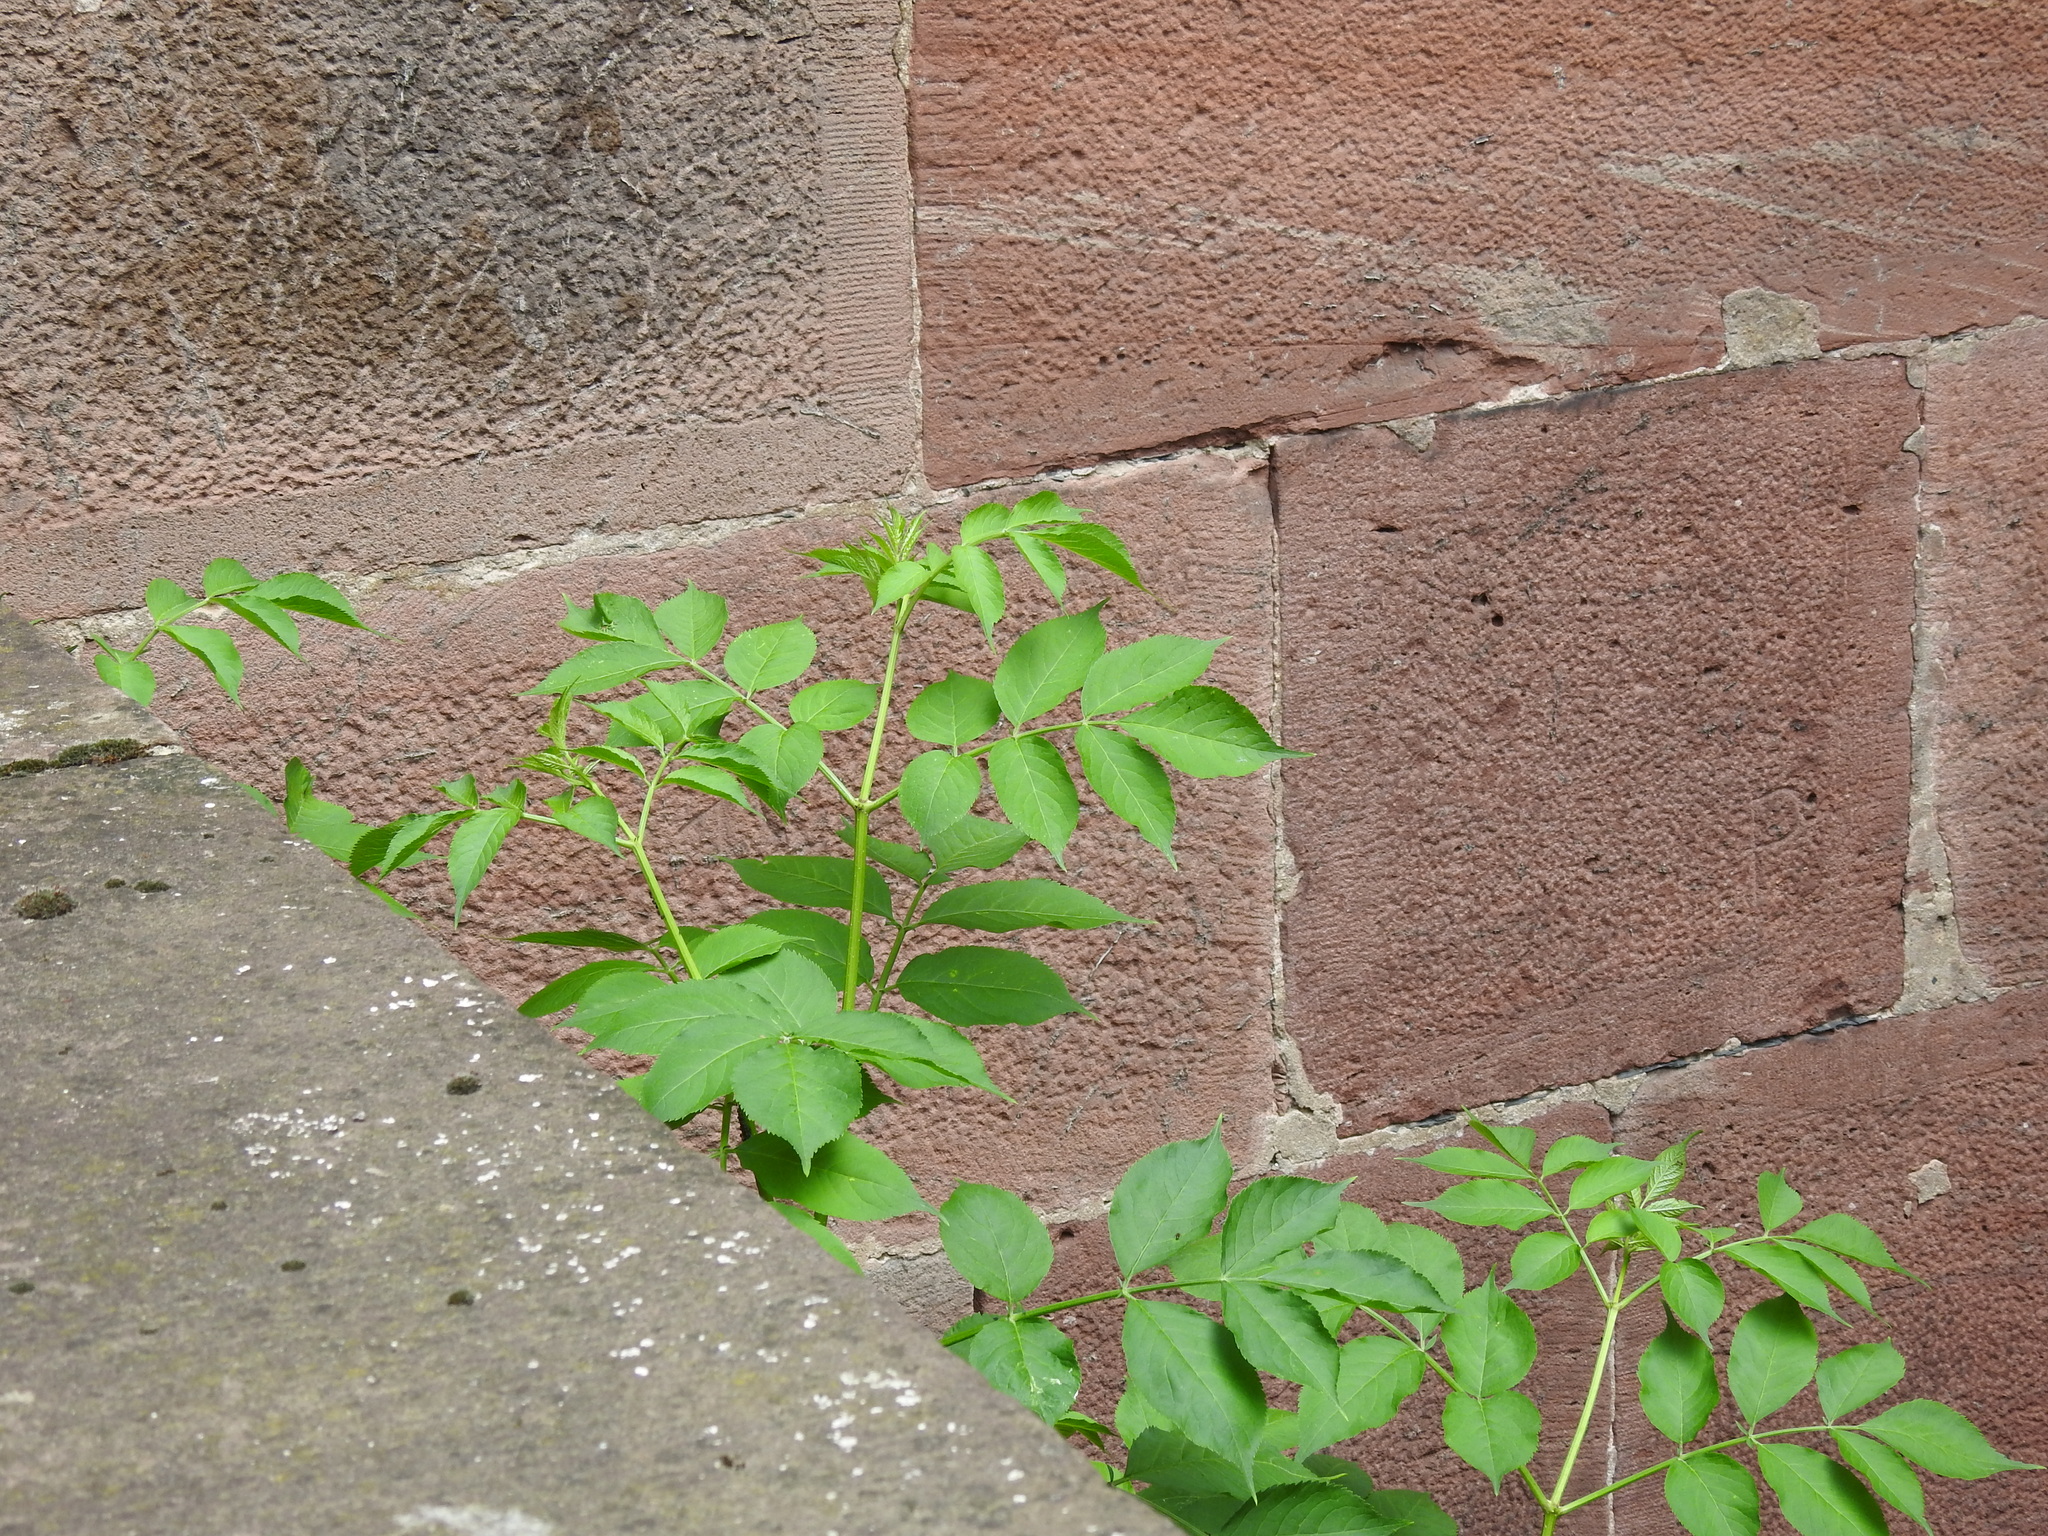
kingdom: Plantae
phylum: Tracheophyta
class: Magnoliopsida
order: Dipsacales
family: Viburnaceae
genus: Sambucus
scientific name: Sambucus nigra
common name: Elder
